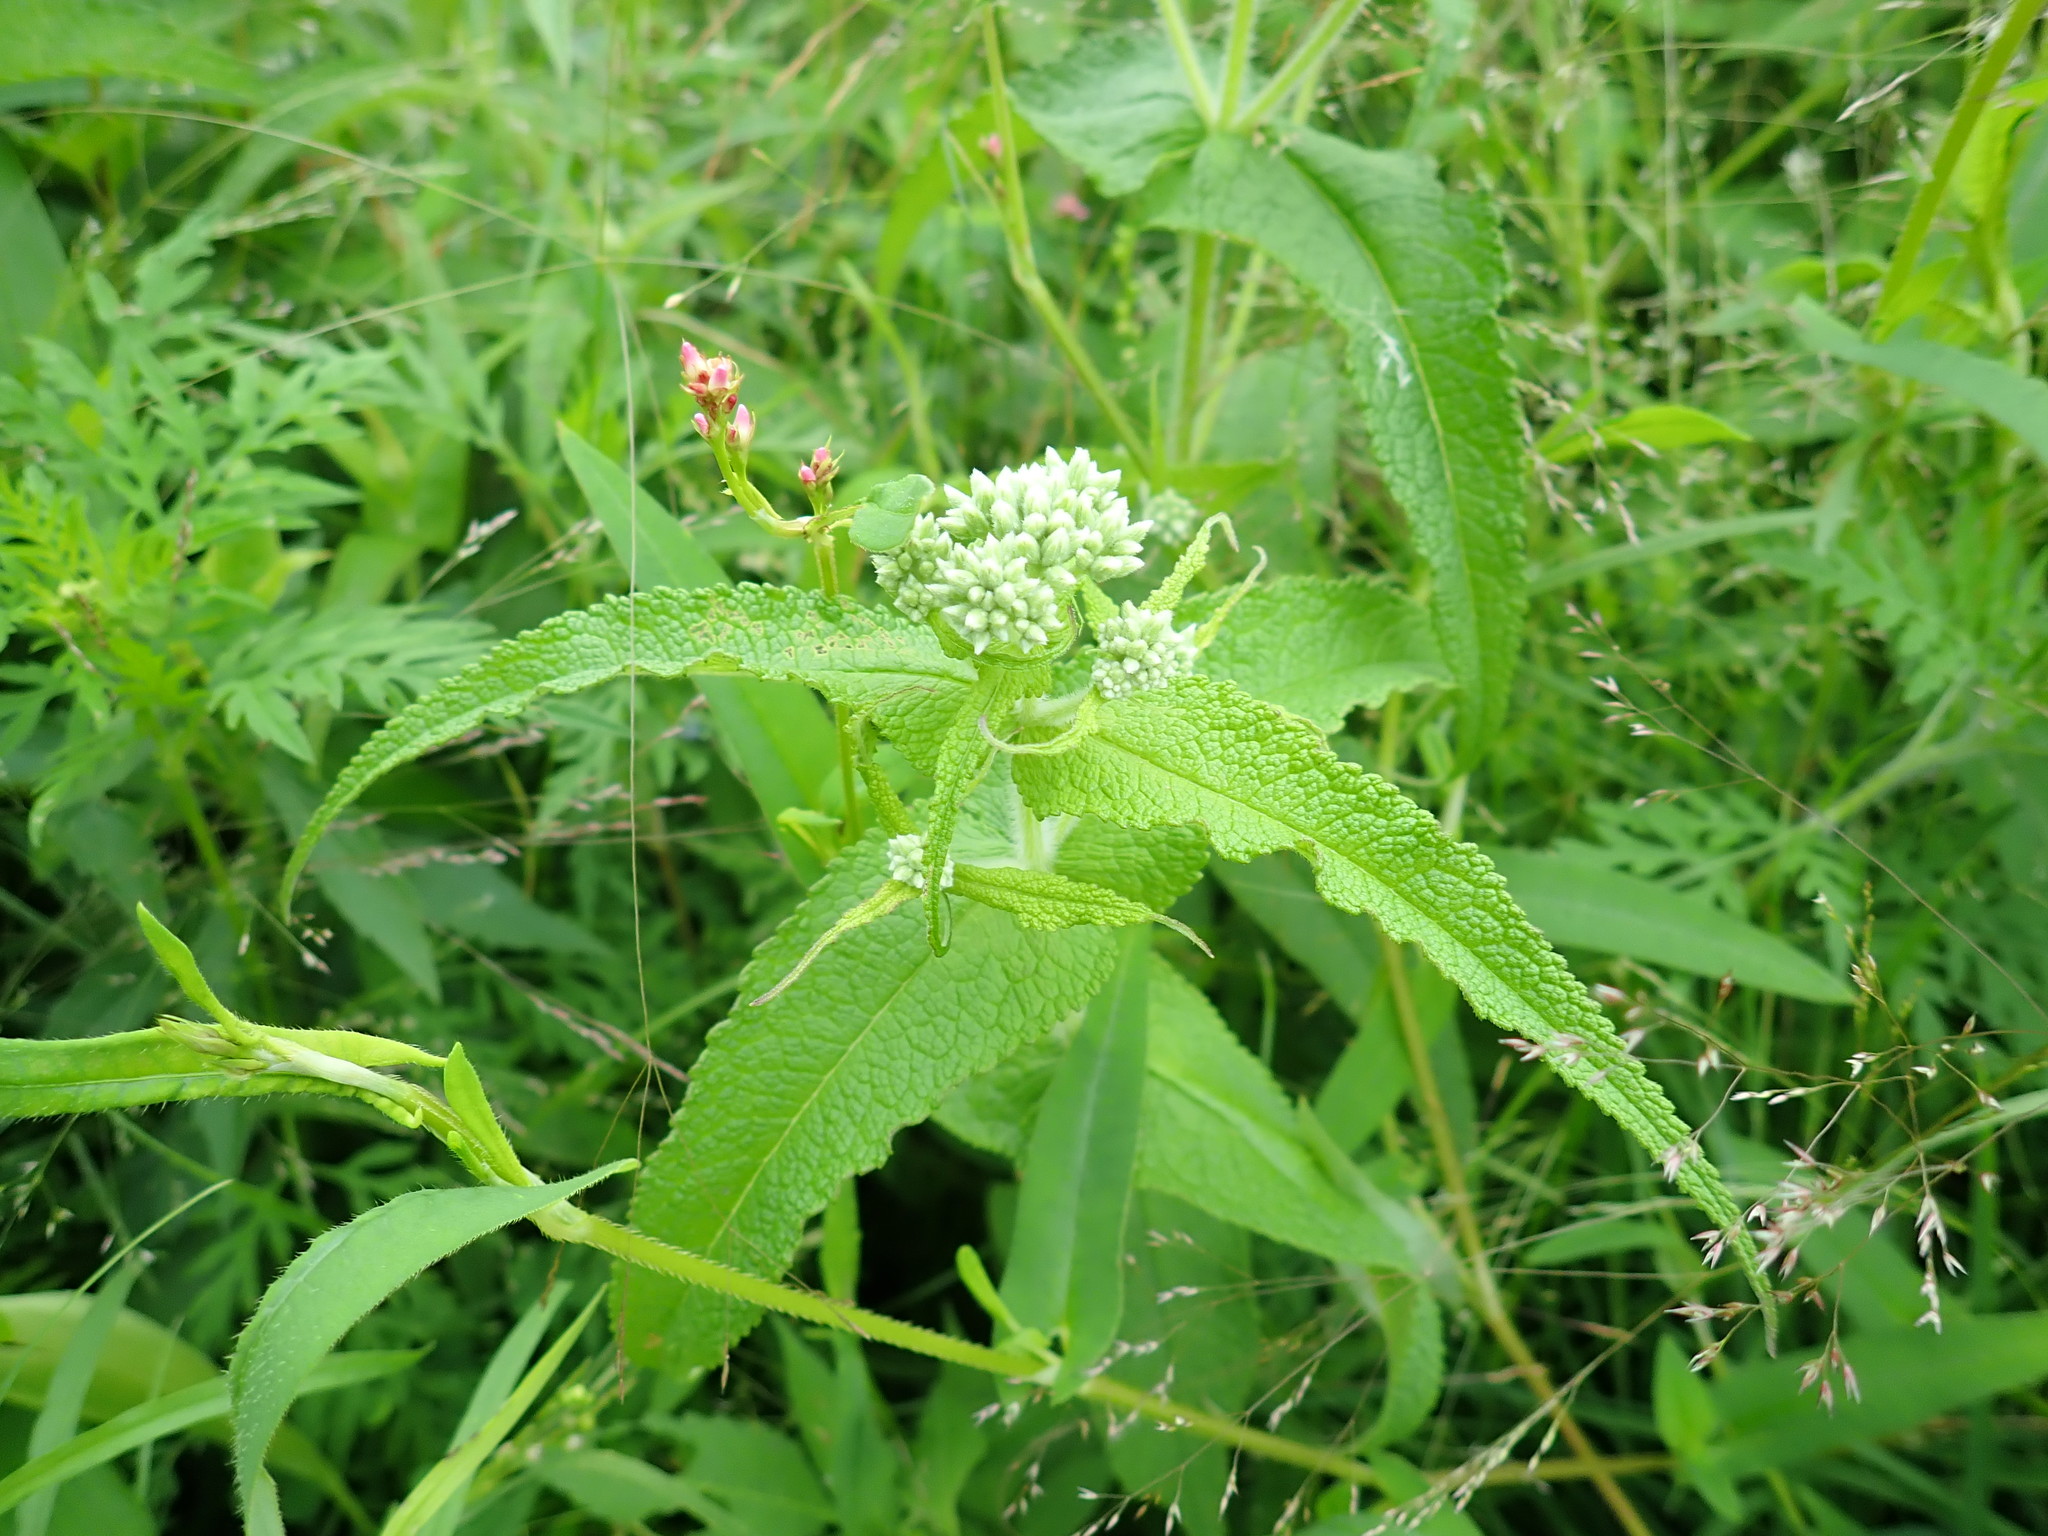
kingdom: Plantae
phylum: Tracheophyta
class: Magnoliopsida
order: Asterales
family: Asteraceae
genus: Eupatorium
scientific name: Eupatorium perfoliatum
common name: Boneset
